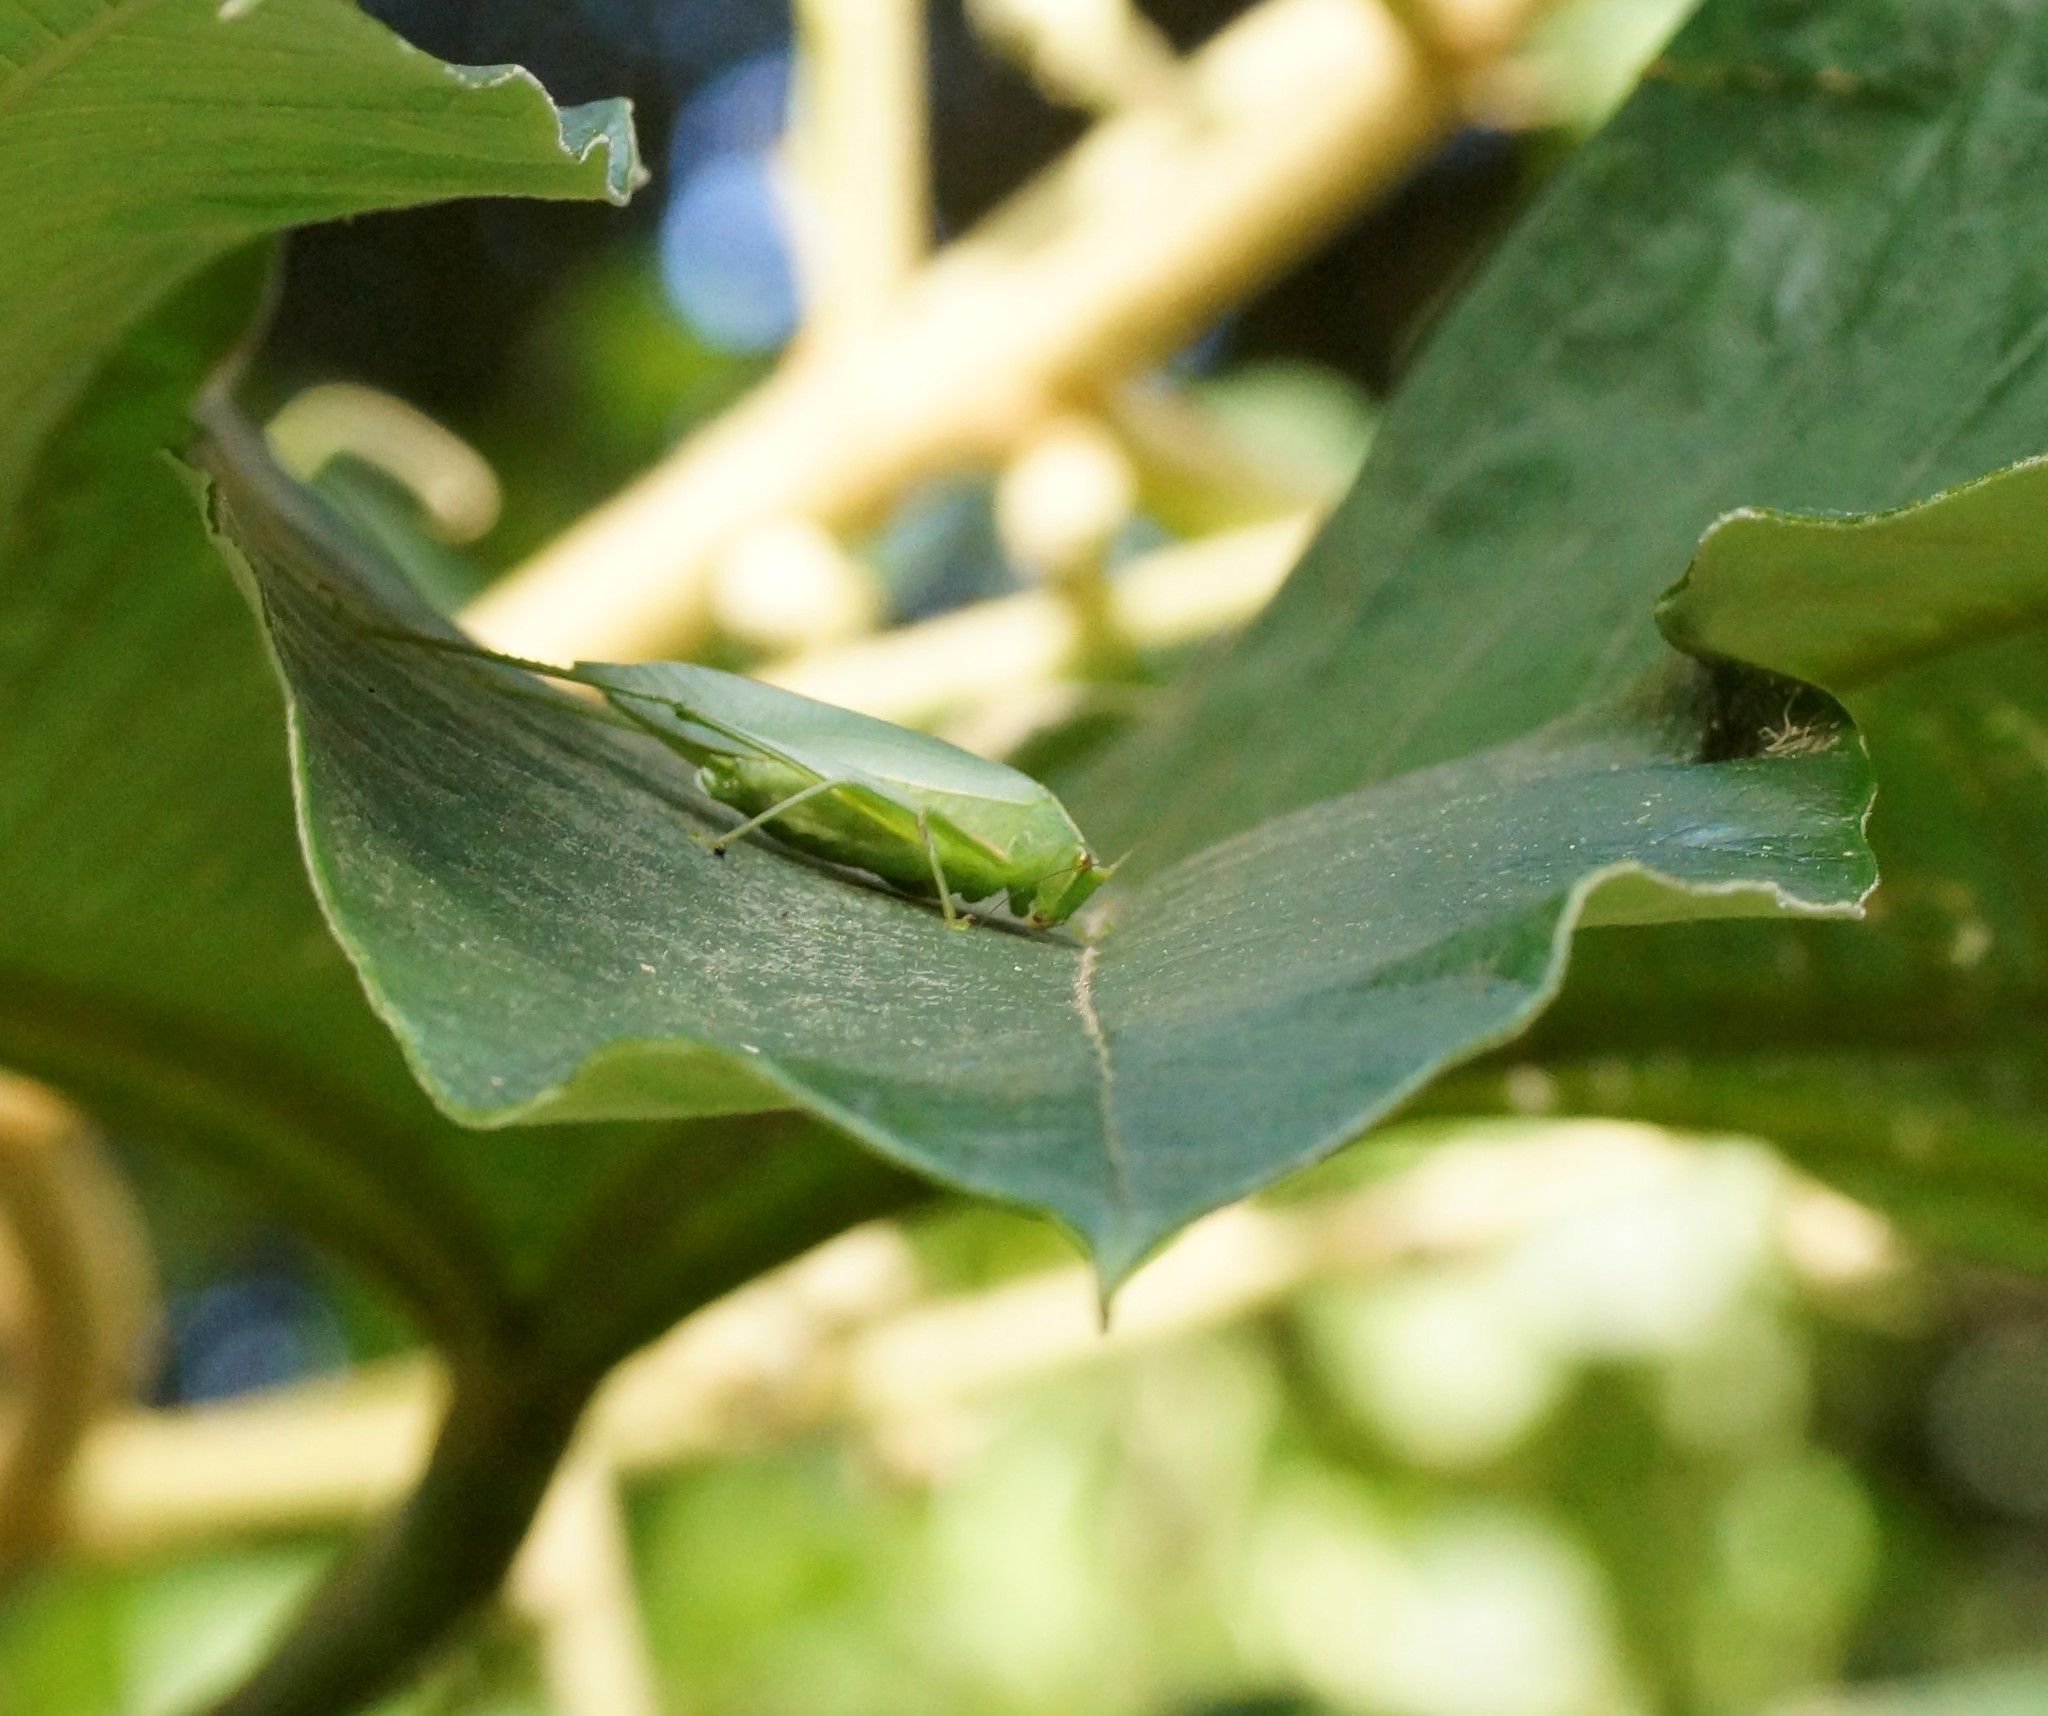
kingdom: Animalia
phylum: Arthropoda
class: Insecta
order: Orthoptera
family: Tettigoniidae
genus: Caedicia
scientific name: Caedicia simplex
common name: Common garden katydid
